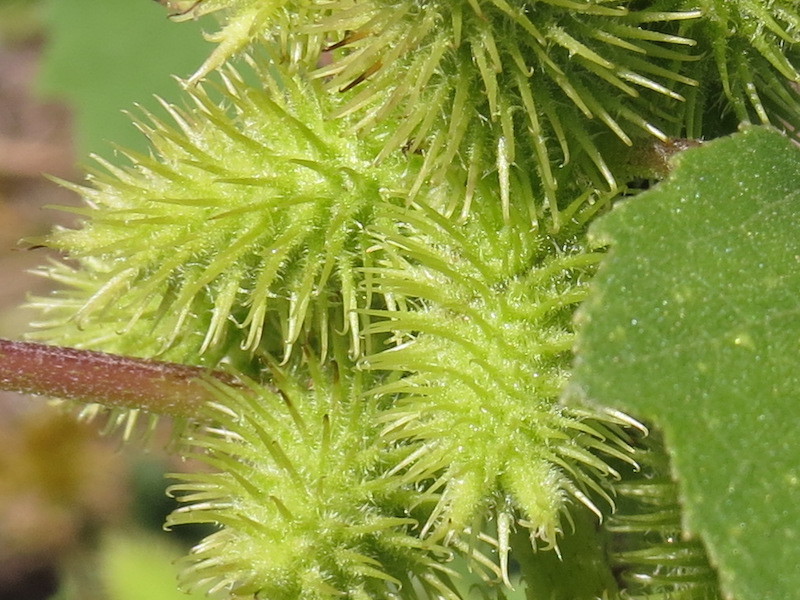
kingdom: Plantae
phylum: Tracheophyta
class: Magnoliopsida
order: Asterales
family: Asteraceae
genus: Xanthium
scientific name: Xanthium strumarium
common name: Rough cocklebur
